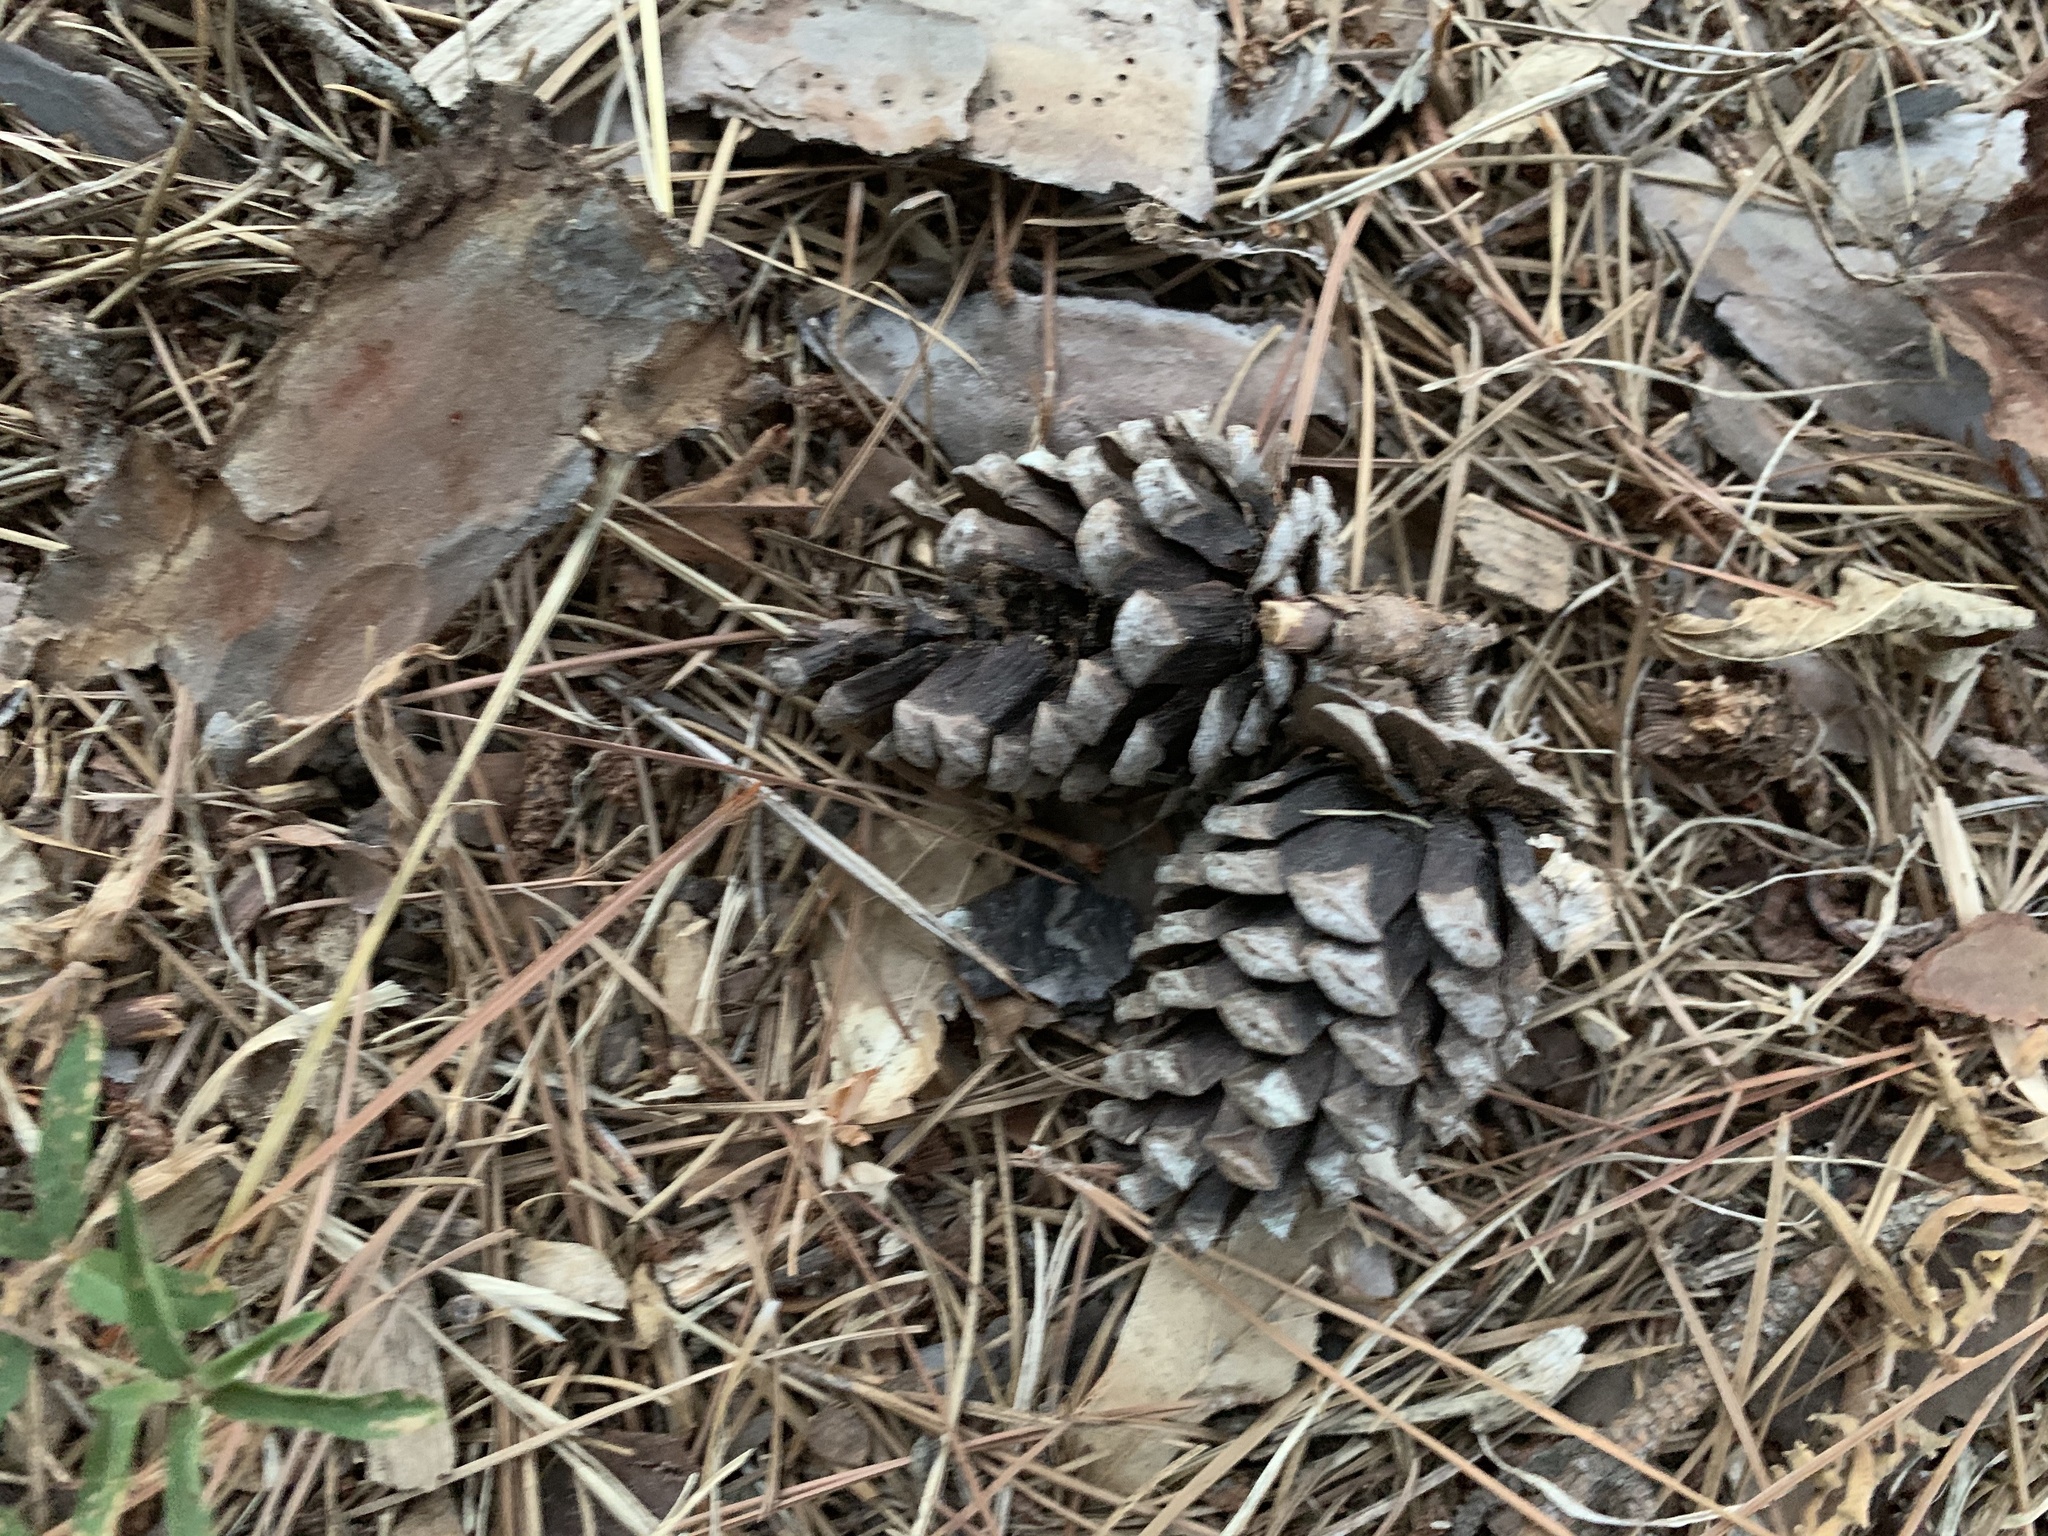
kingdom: Plantae
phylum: Tracheophyta
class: Pinopsida
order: Pinales
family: Pinaceae
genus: Pinus
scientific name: Pinus echinata
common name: Shortleaf pine
